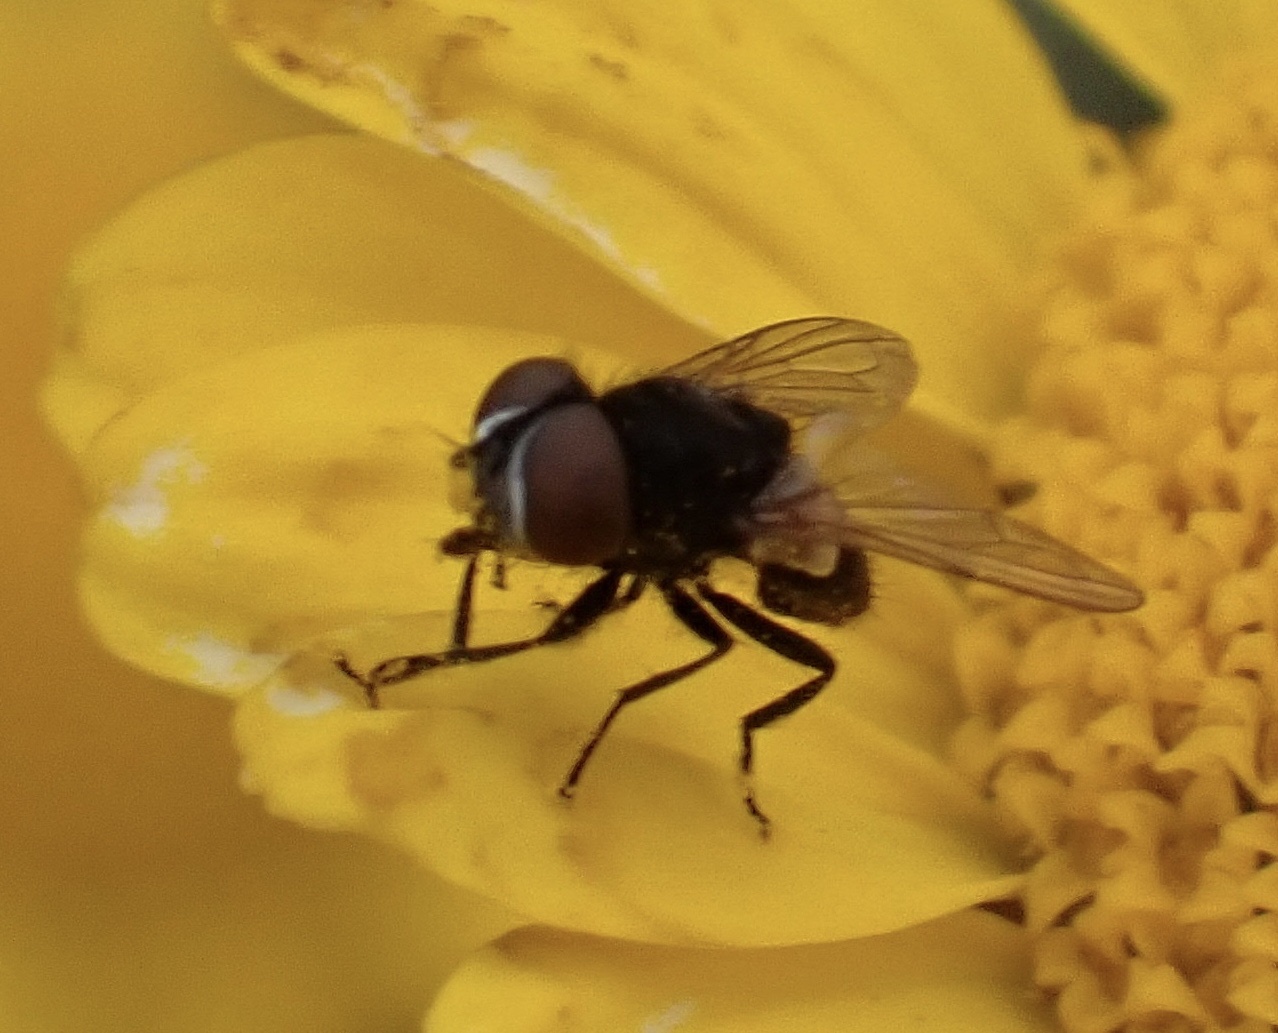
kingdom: Animalia
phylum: Arthropoda
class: Insecta
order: Diptera
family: Tachinidae
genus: Phasia
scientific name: Phasia pusilla
